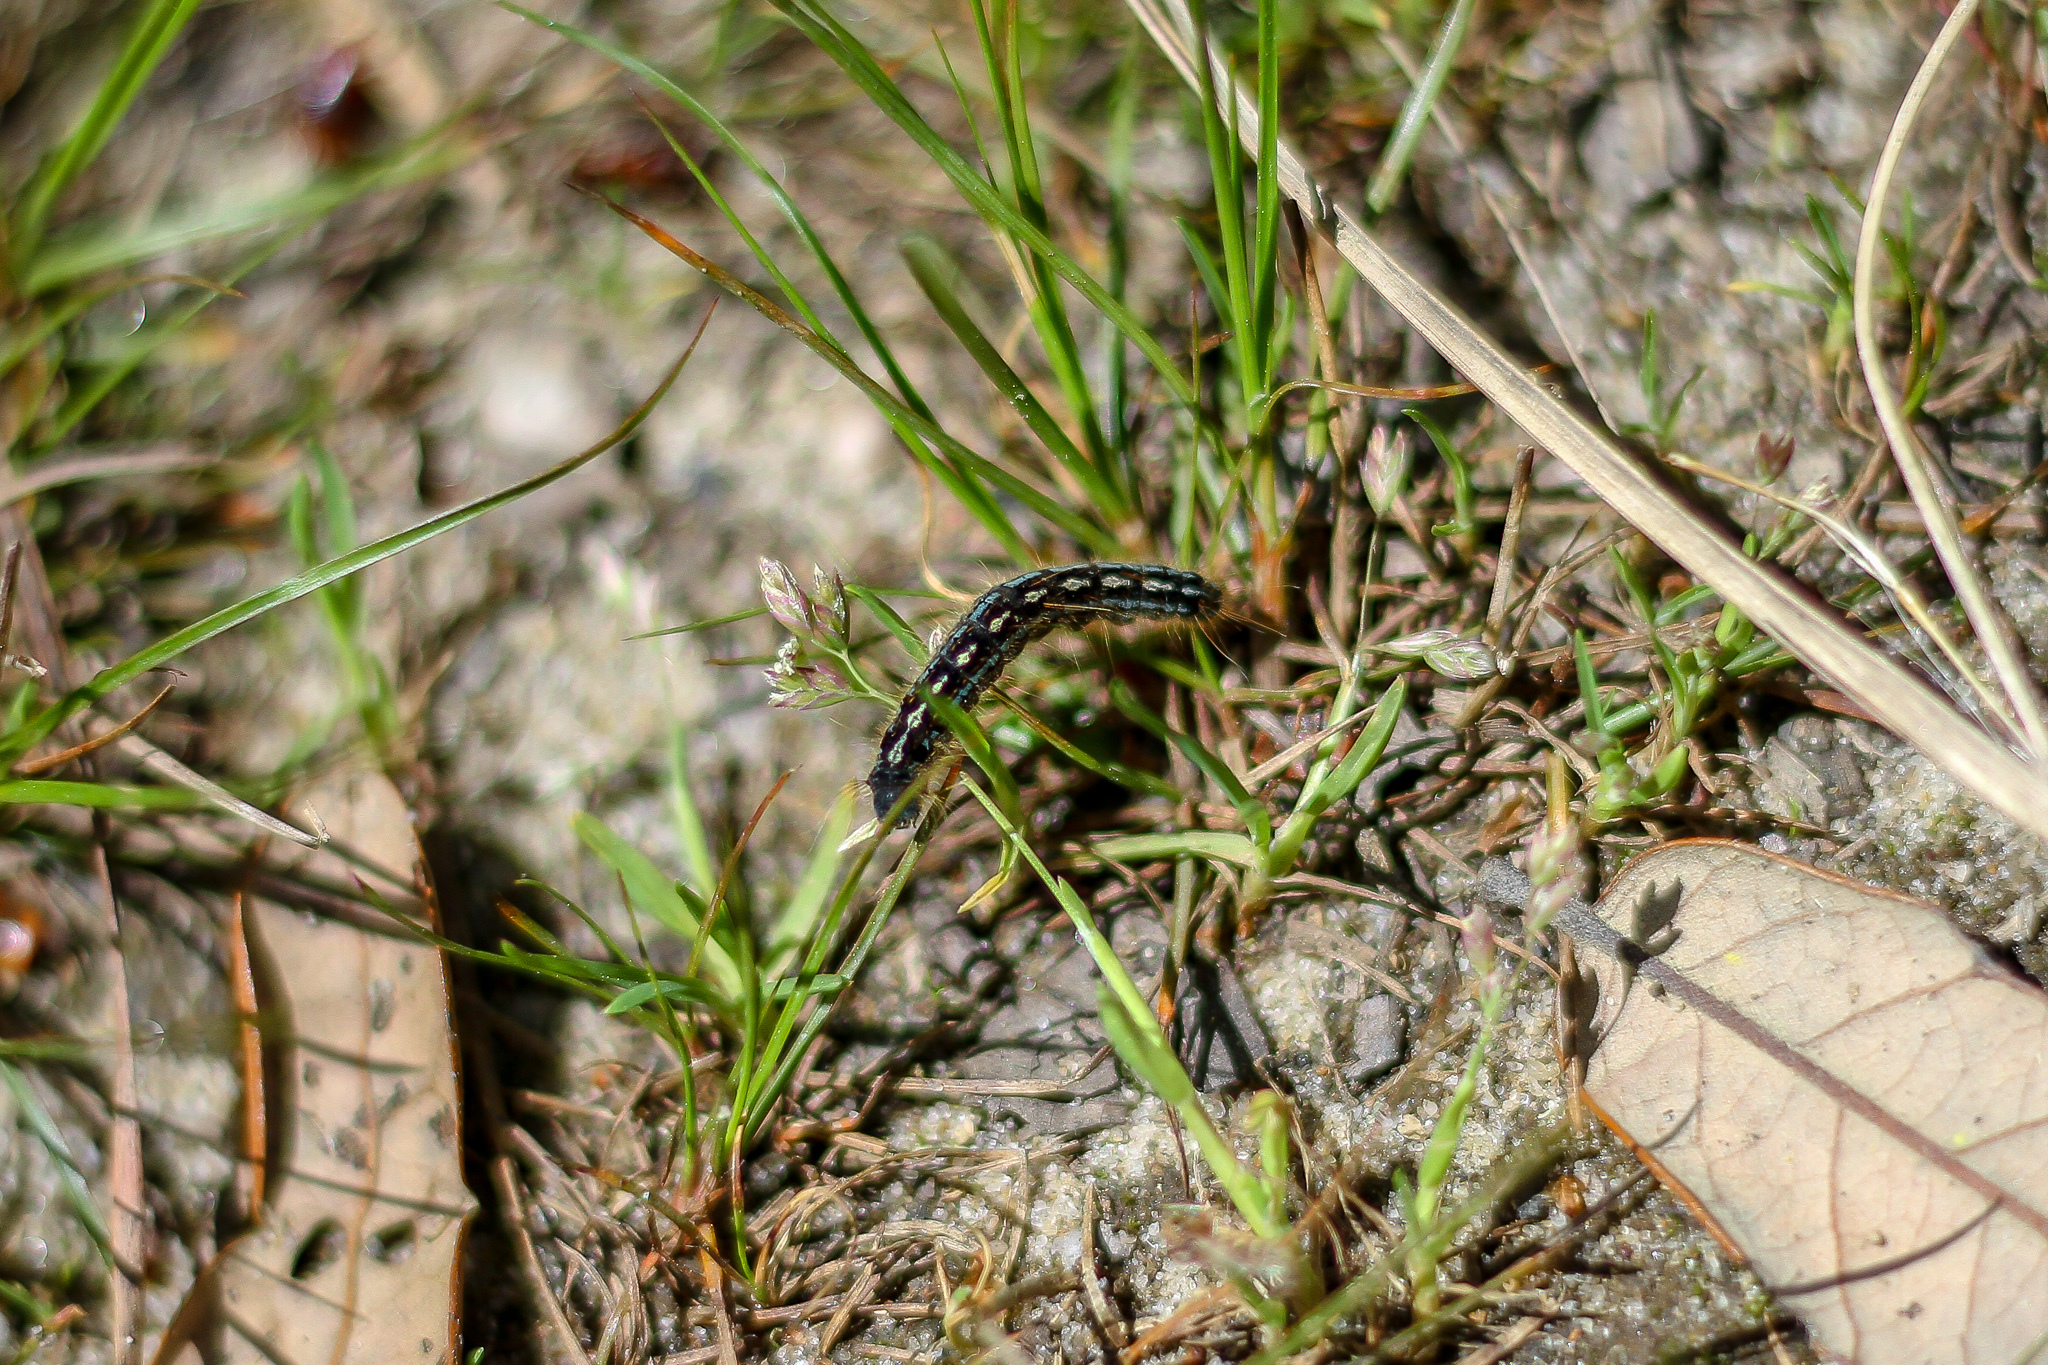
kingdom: Animalia
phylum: Arthropoda
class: Insecta
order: Lepidoptera
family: Lasiocampidae
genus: Malacosoma
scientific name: Malacosoma disstria
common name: Forest tent caterpillar
